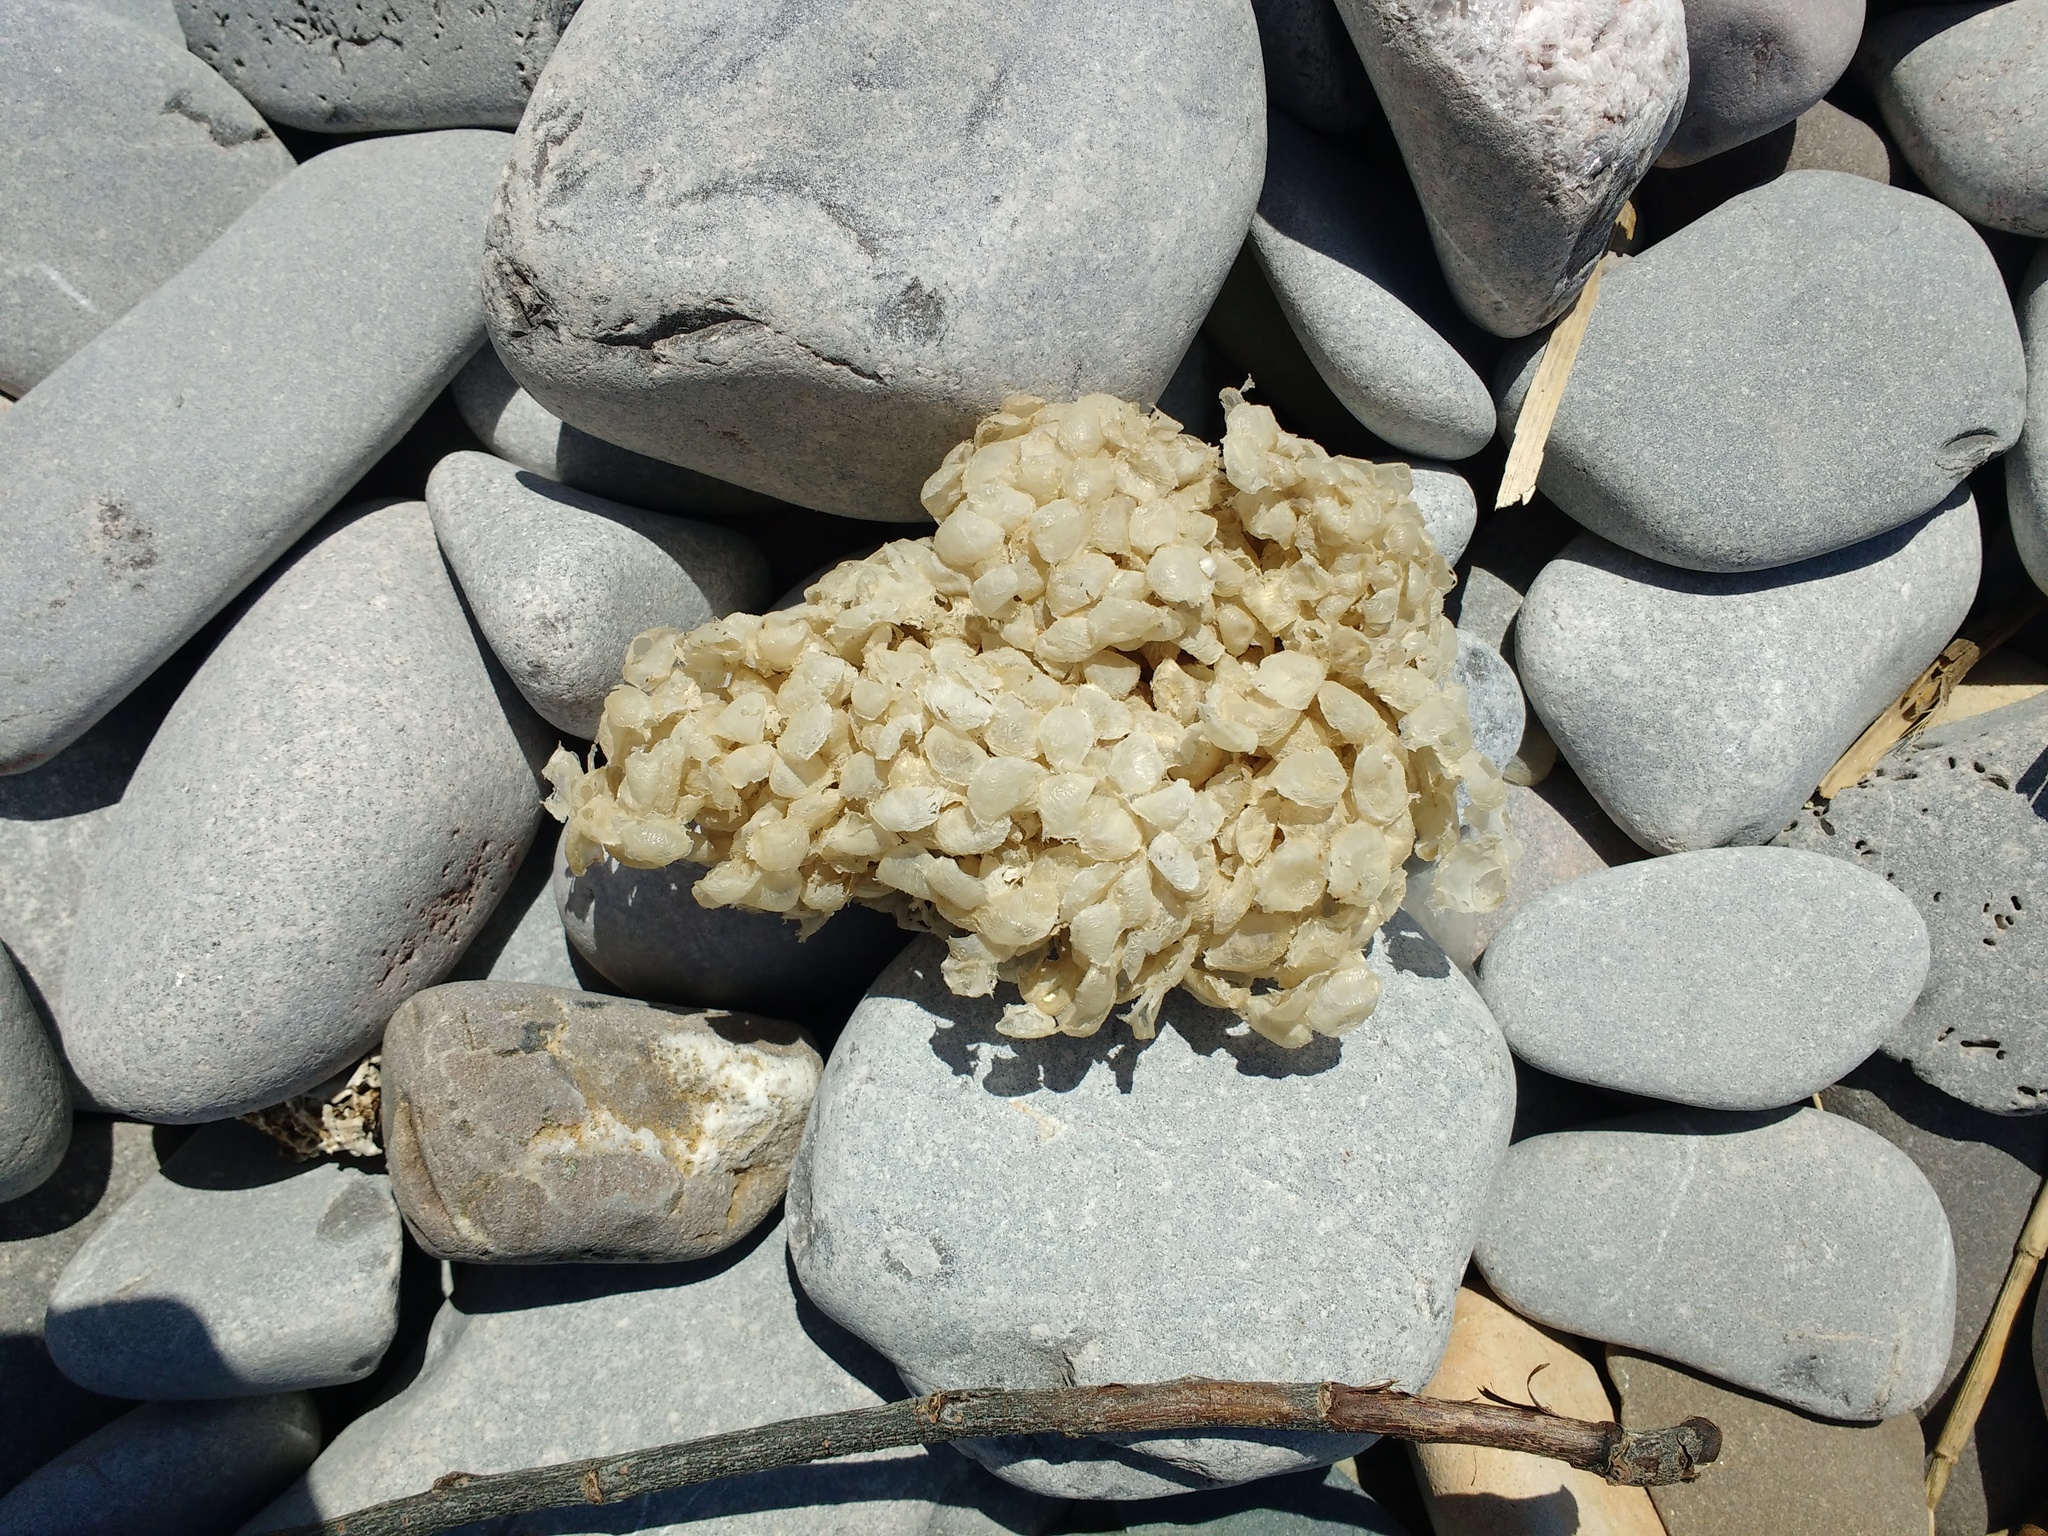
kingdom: Animalia
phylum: Mollusca
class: Gastropoda
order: Neogastropoda
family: Buccinidae
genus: Buccinum
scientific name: Buccinum undatum
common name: Common whelk
